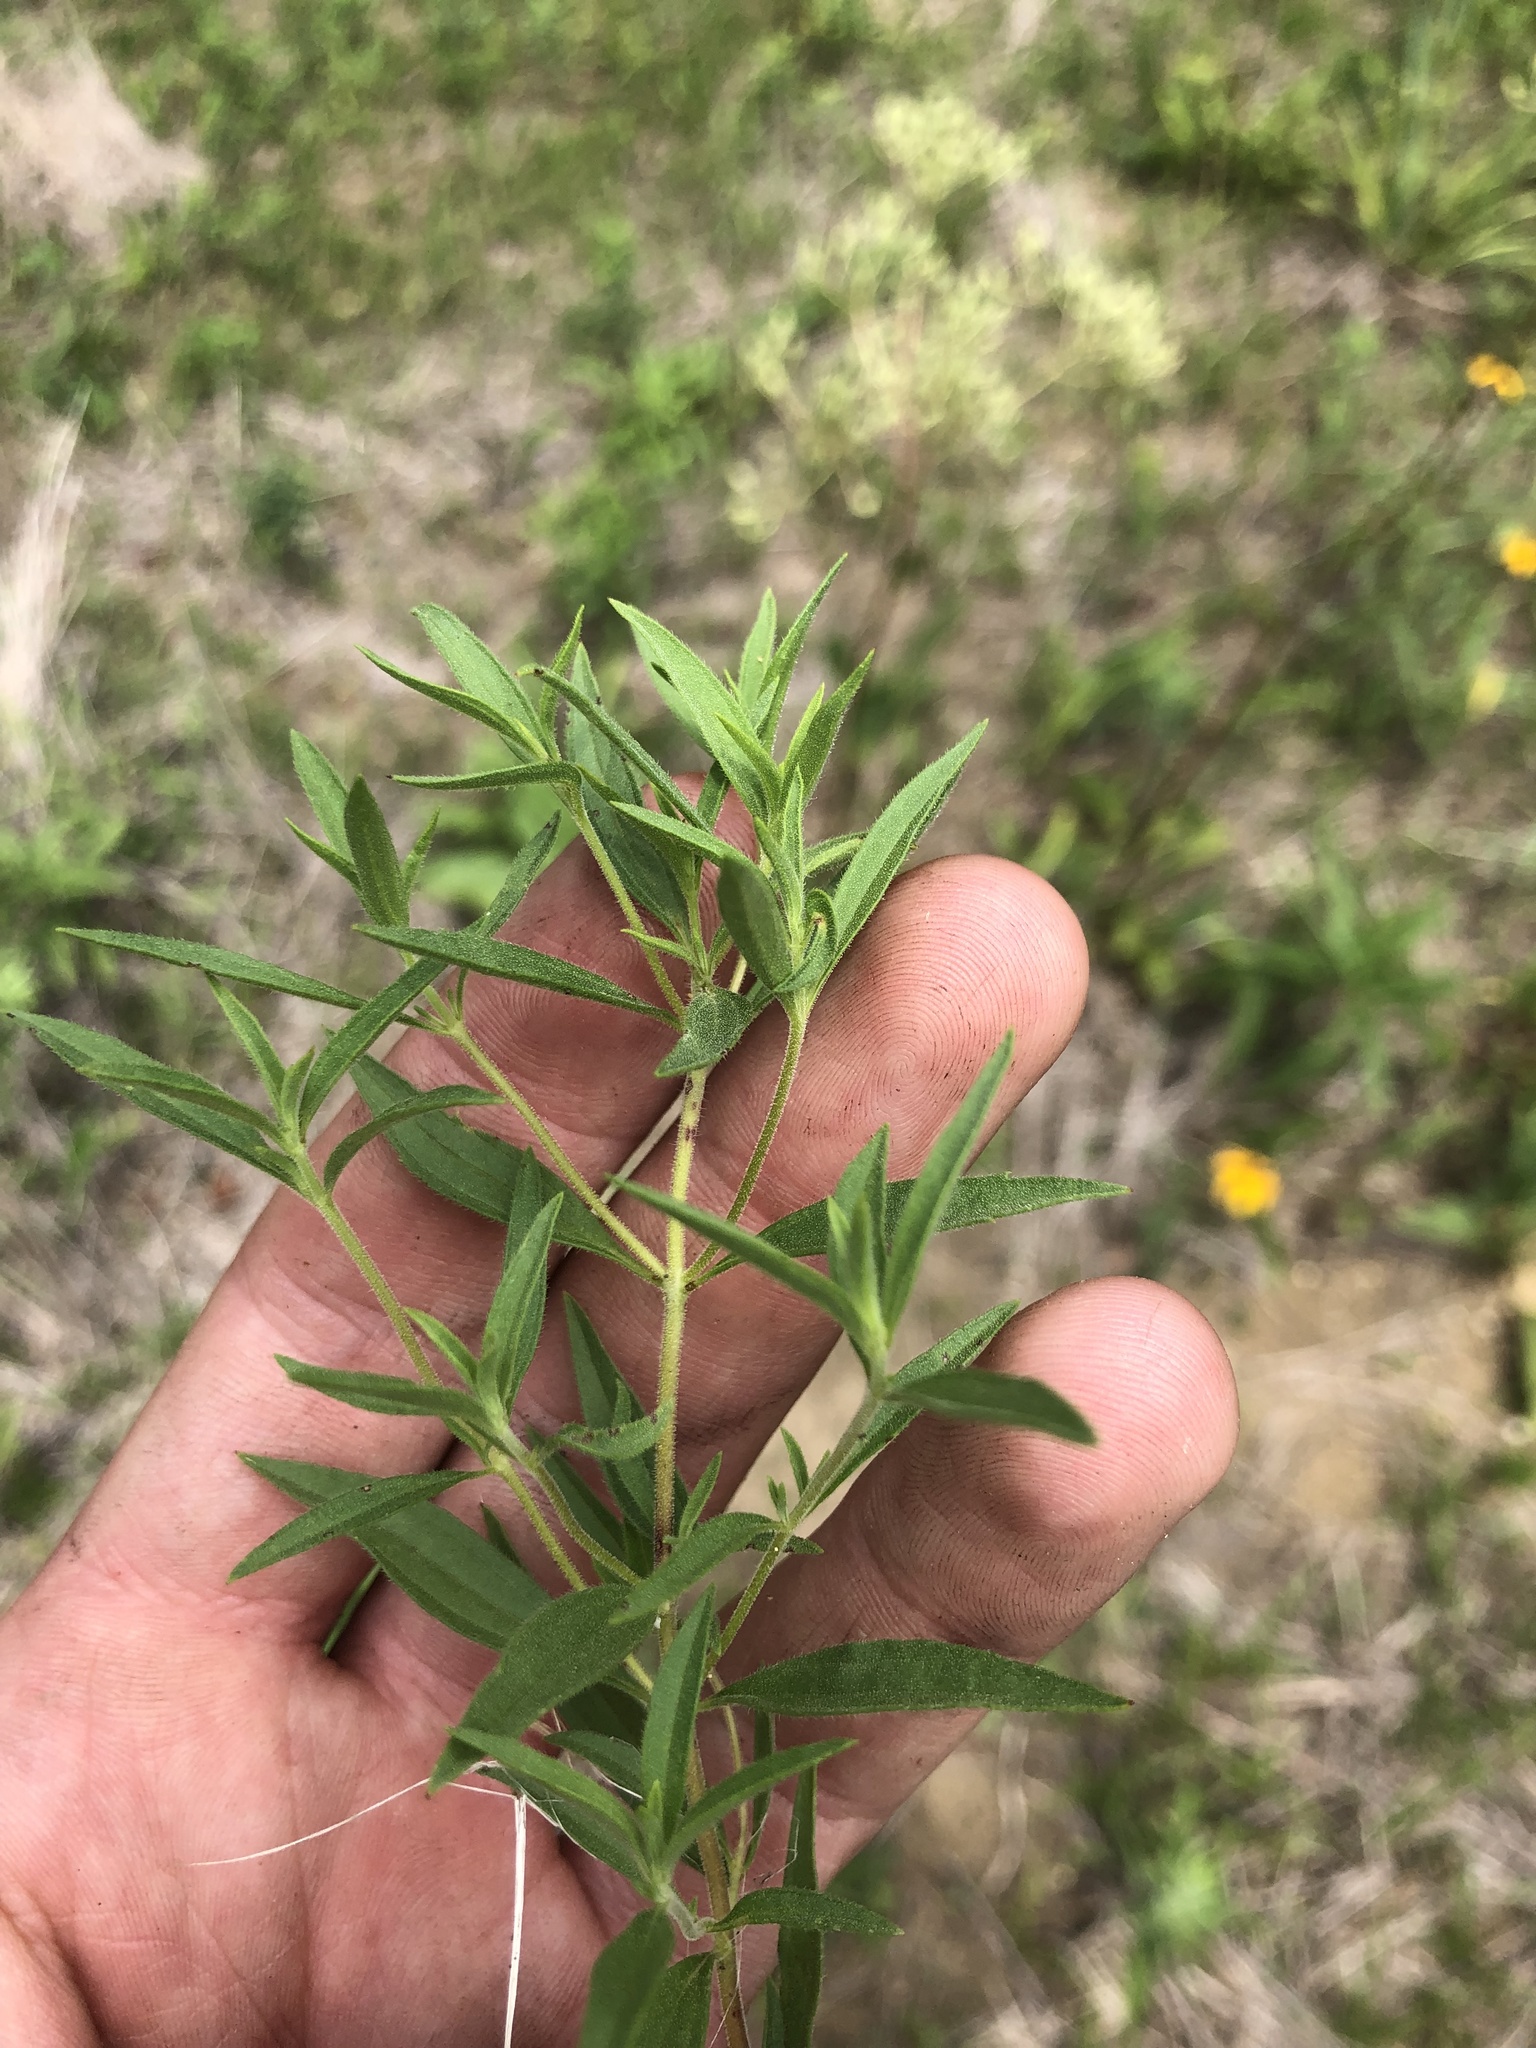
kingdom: Plantae
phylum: Tracheophyta
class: Magnoliopsida
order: Lamiales
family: Lamiaceae
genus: Trichostema
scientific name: Trichostema brachiatum
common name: False pennyroyal
